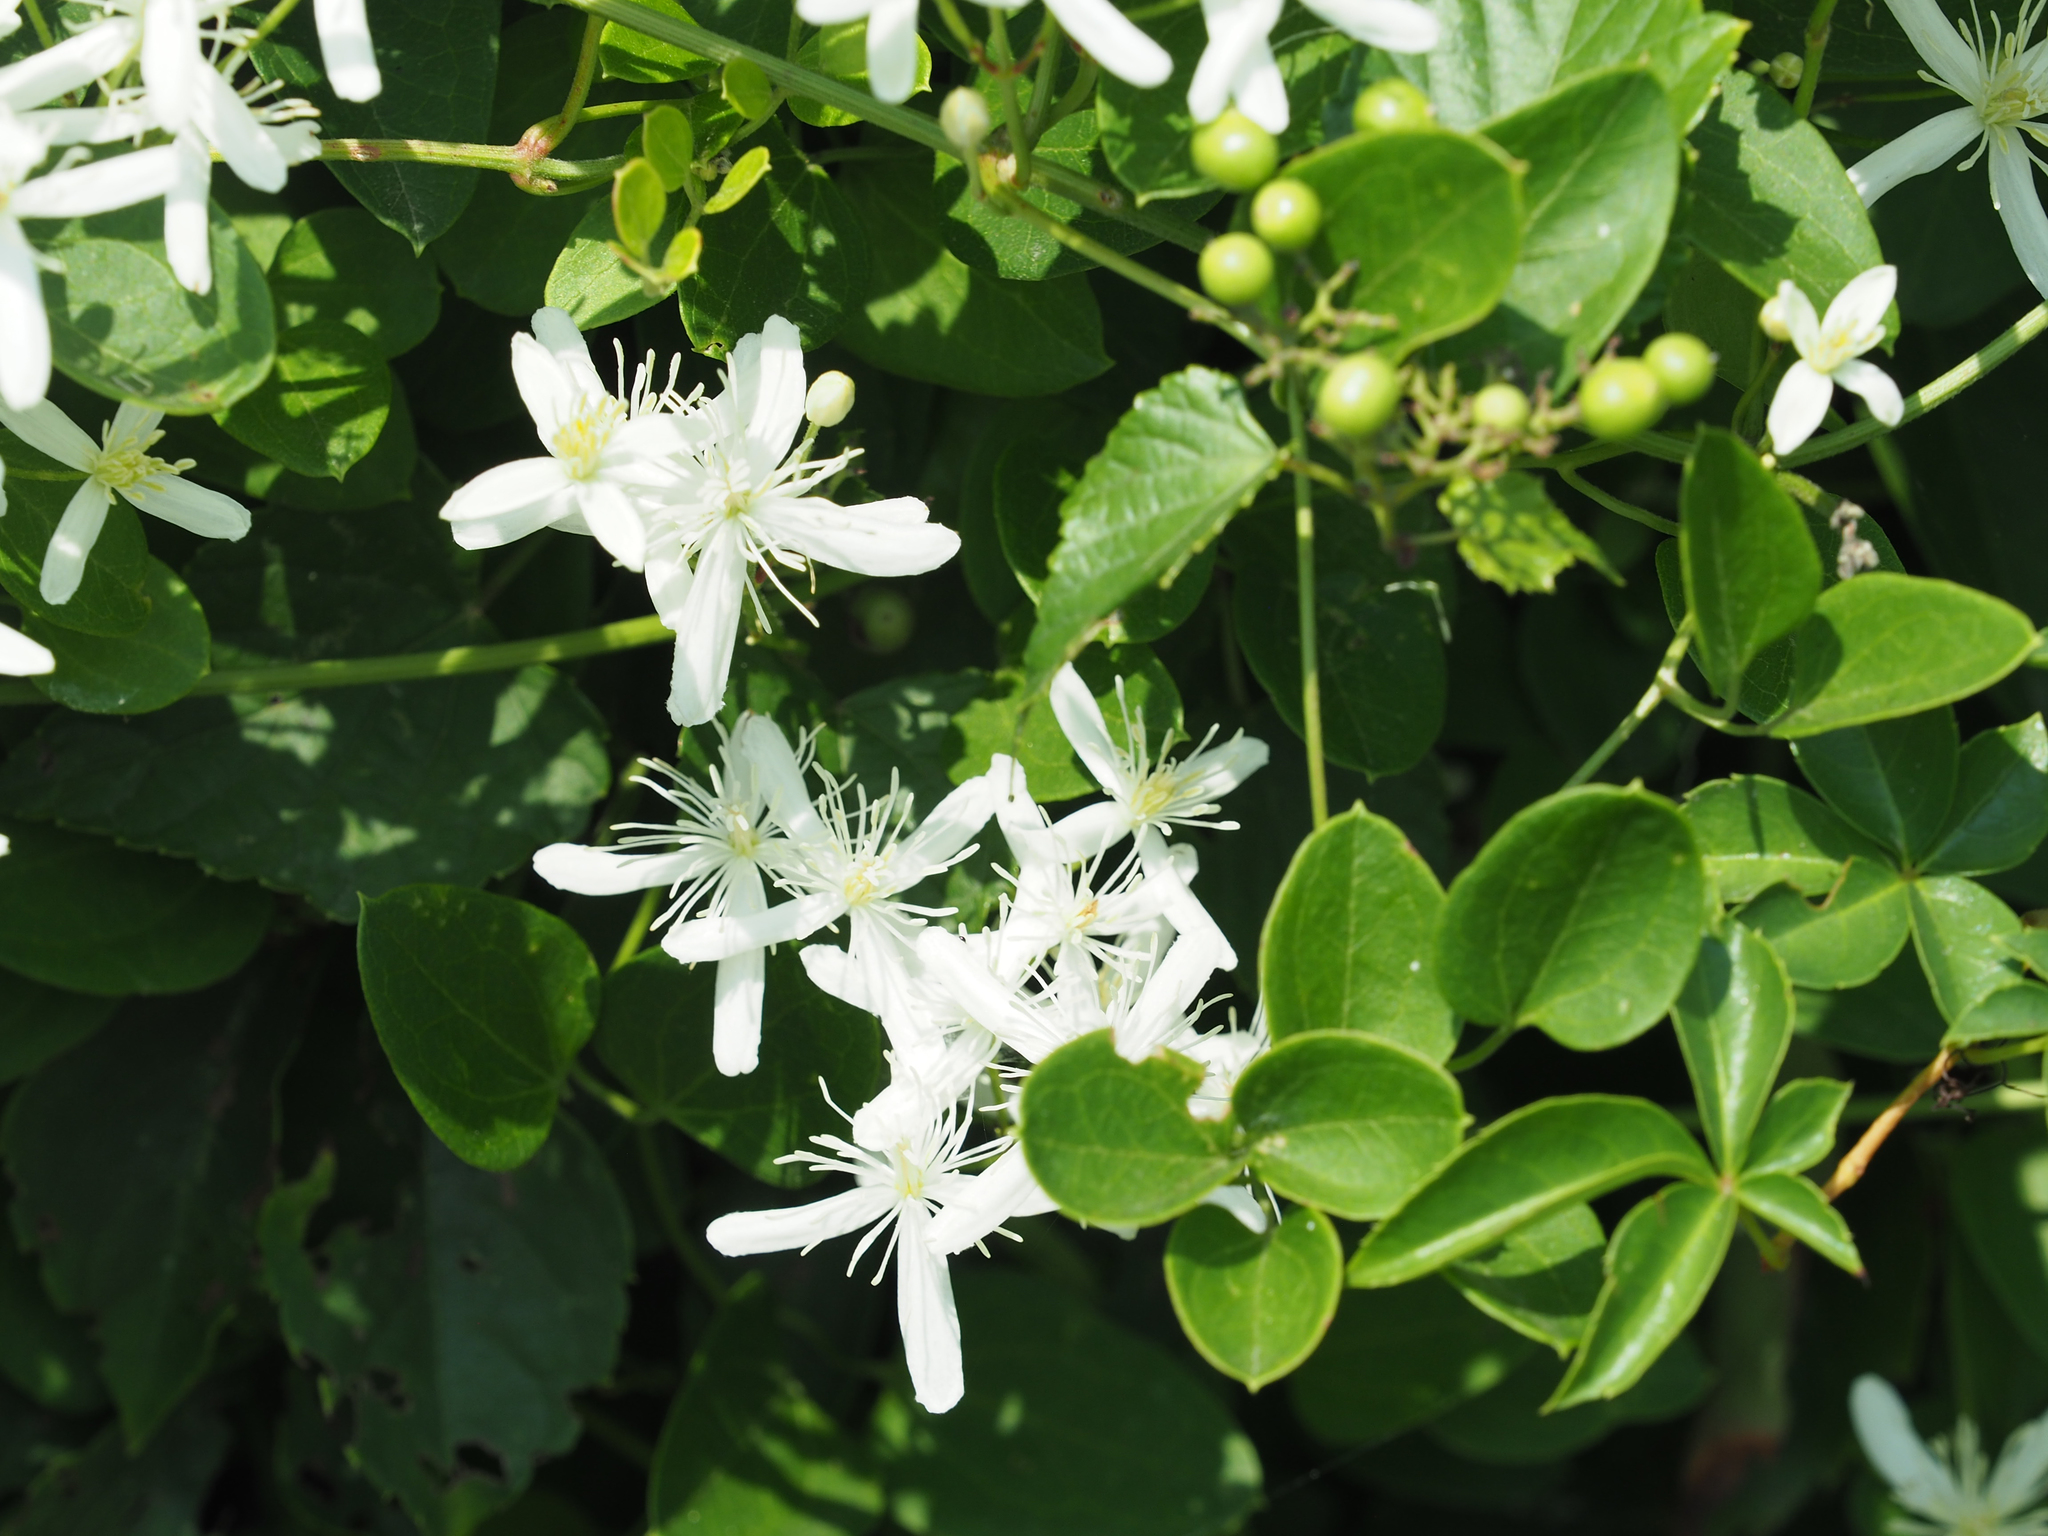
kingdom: Plantae
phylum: Tracheophyta
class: Magnoliopsida
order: Ranunculales
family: Ranunculaceae
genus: Clematis
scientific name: Clematis terniflora
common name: Sweet autumn clematis
